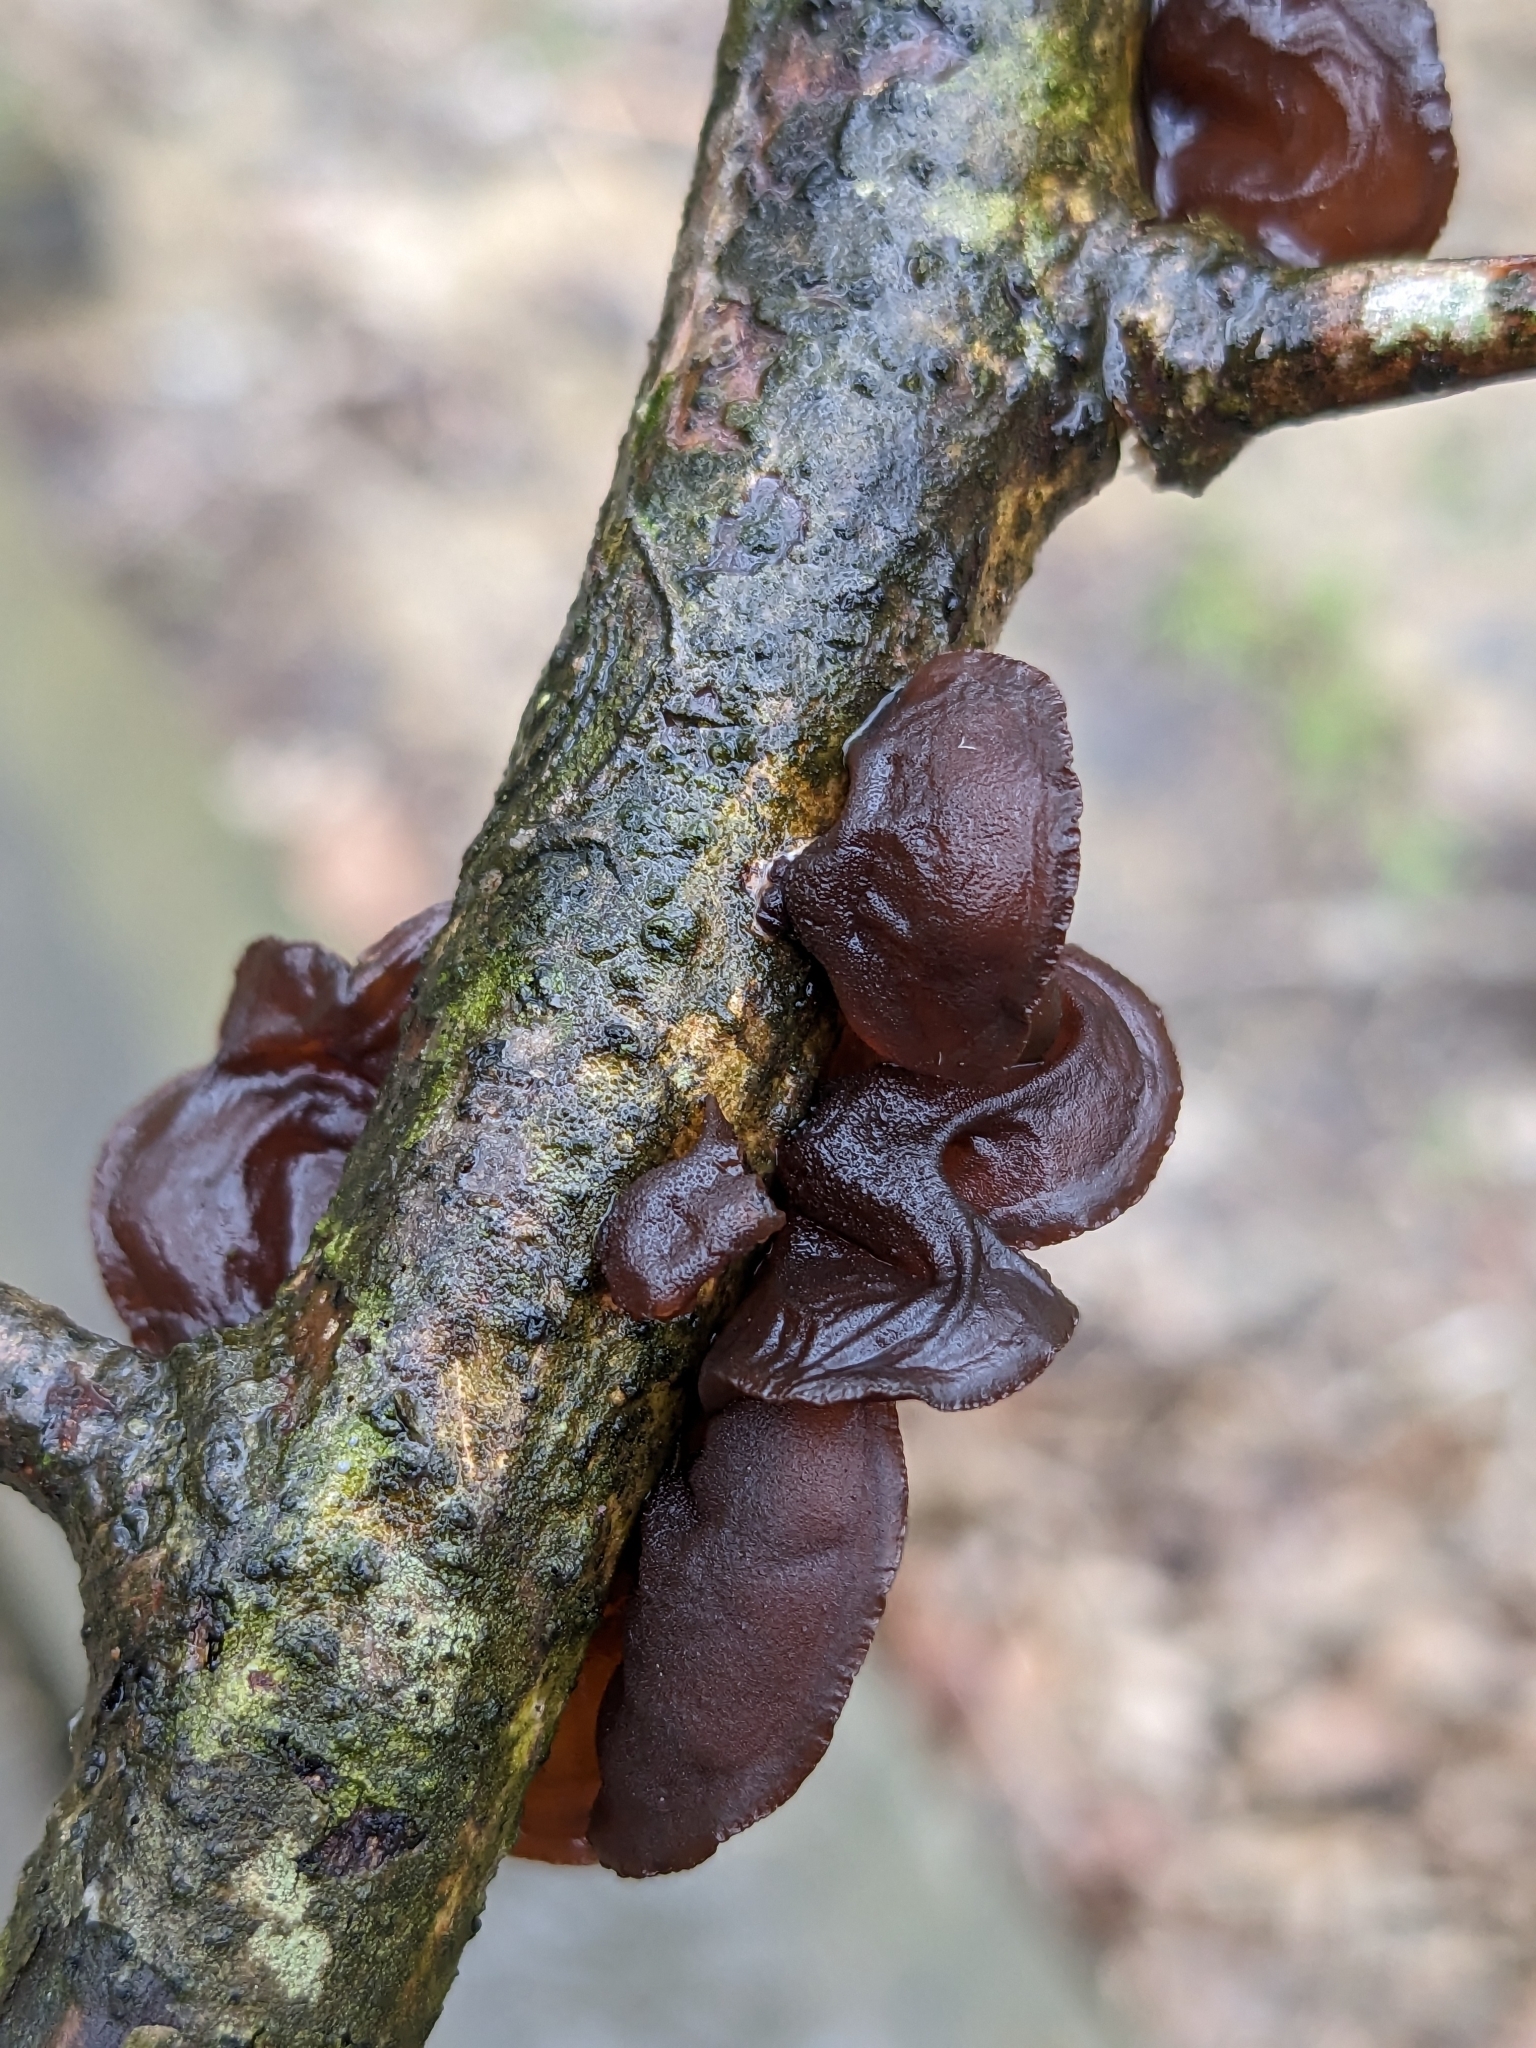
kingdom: Fungi
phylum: Basidiomycota
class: Agaricomycetes
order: Auriculariales
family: Auriculariaceae
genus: Exidia
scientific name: Exidia
